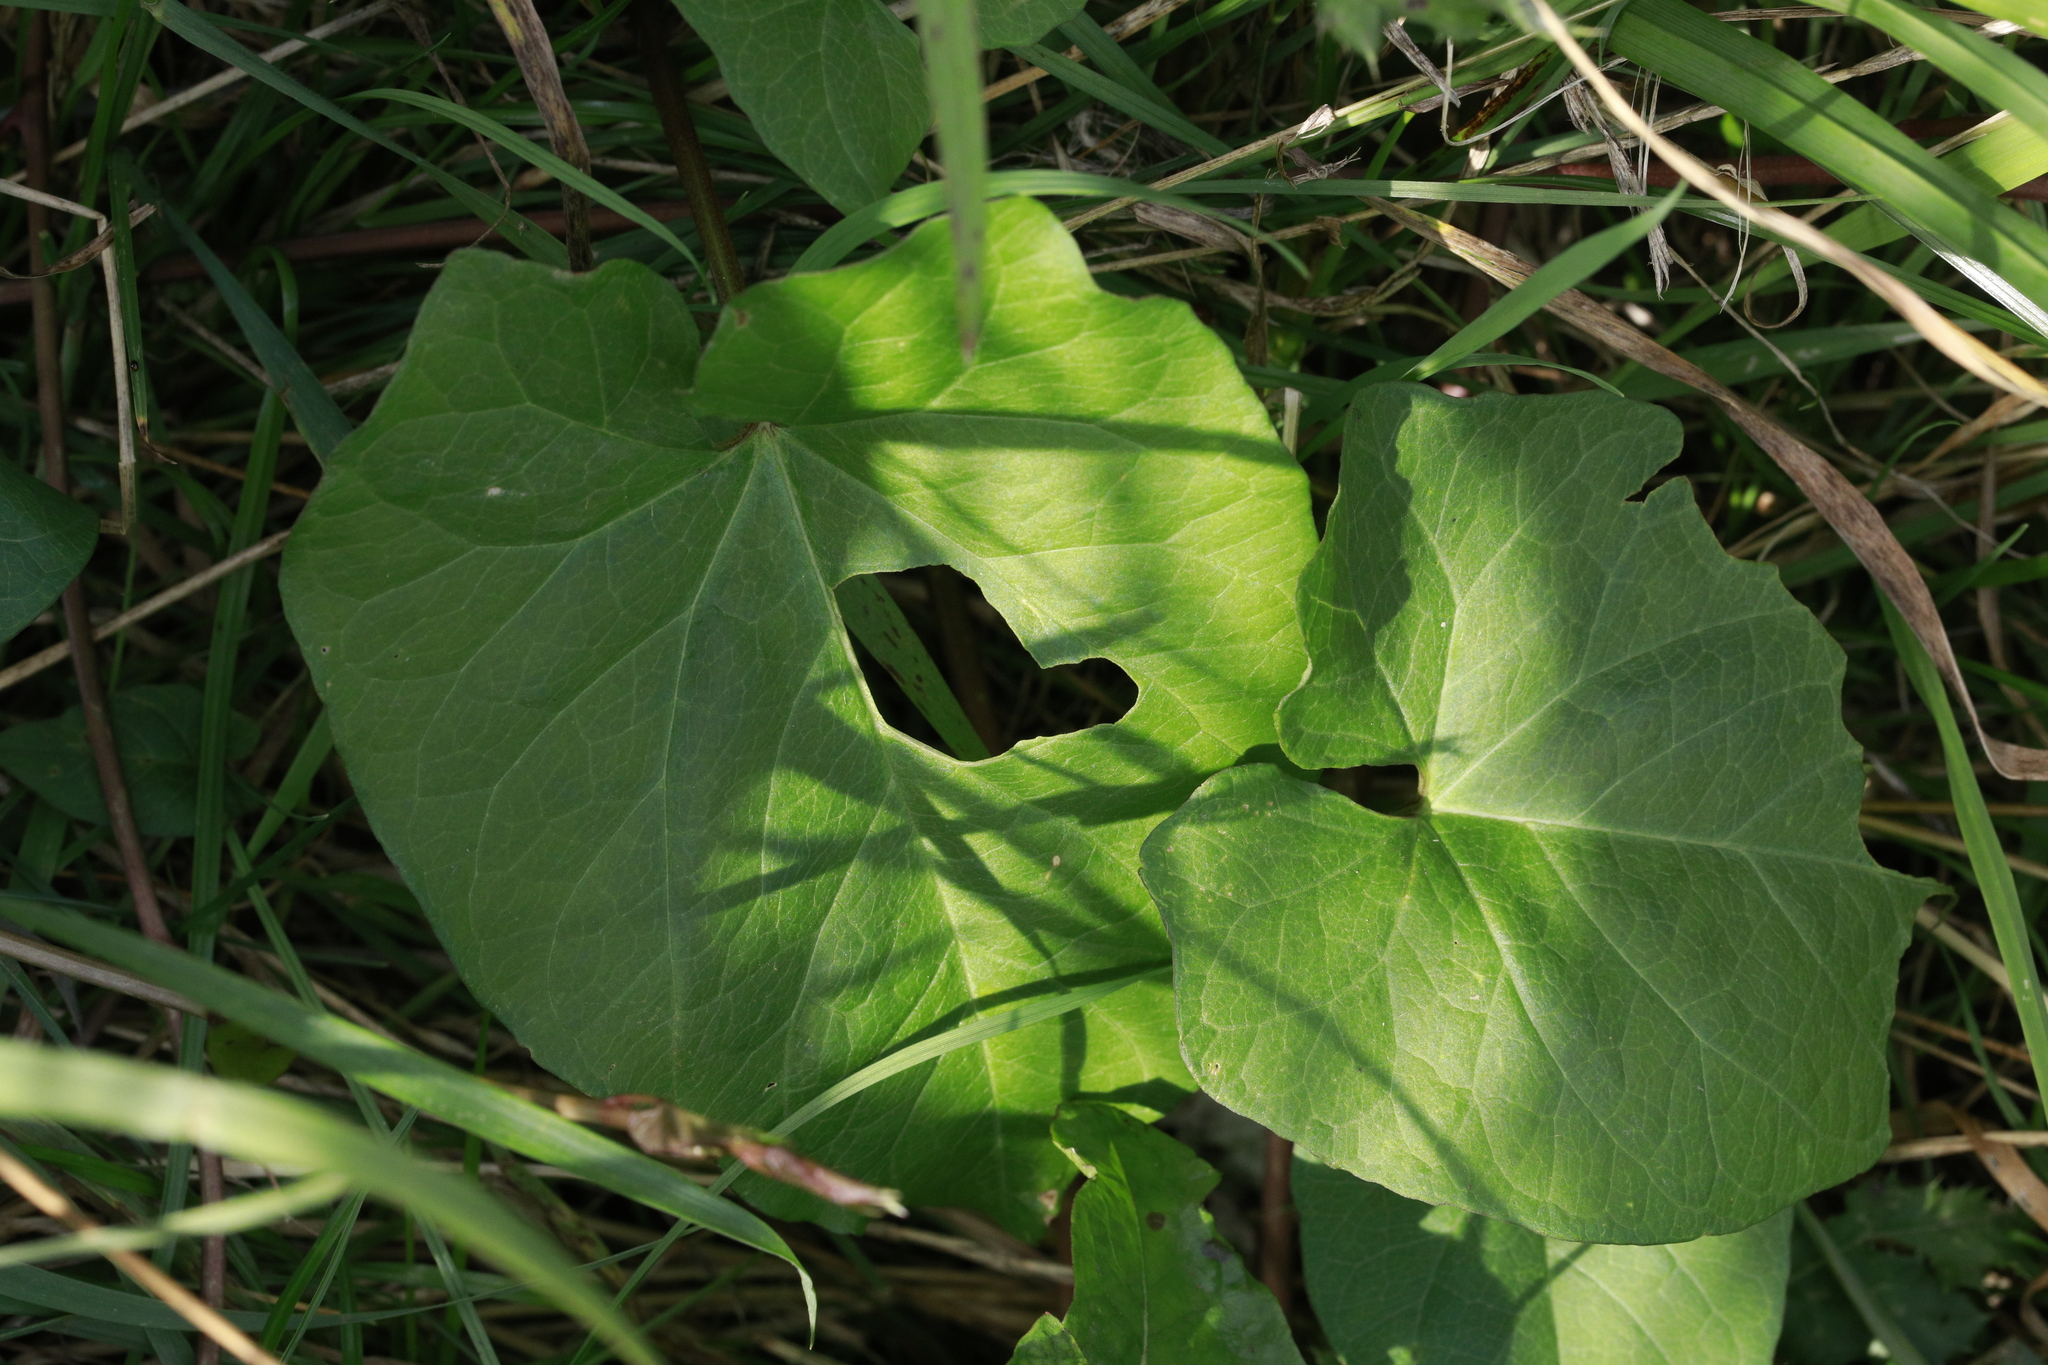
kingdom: Plantae
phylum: Tracheophyta
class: Magnoliopsida
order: Asterales
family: Asteraceae
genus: Tussilago
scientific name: Tussilago farfara
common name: Coltsfoot
